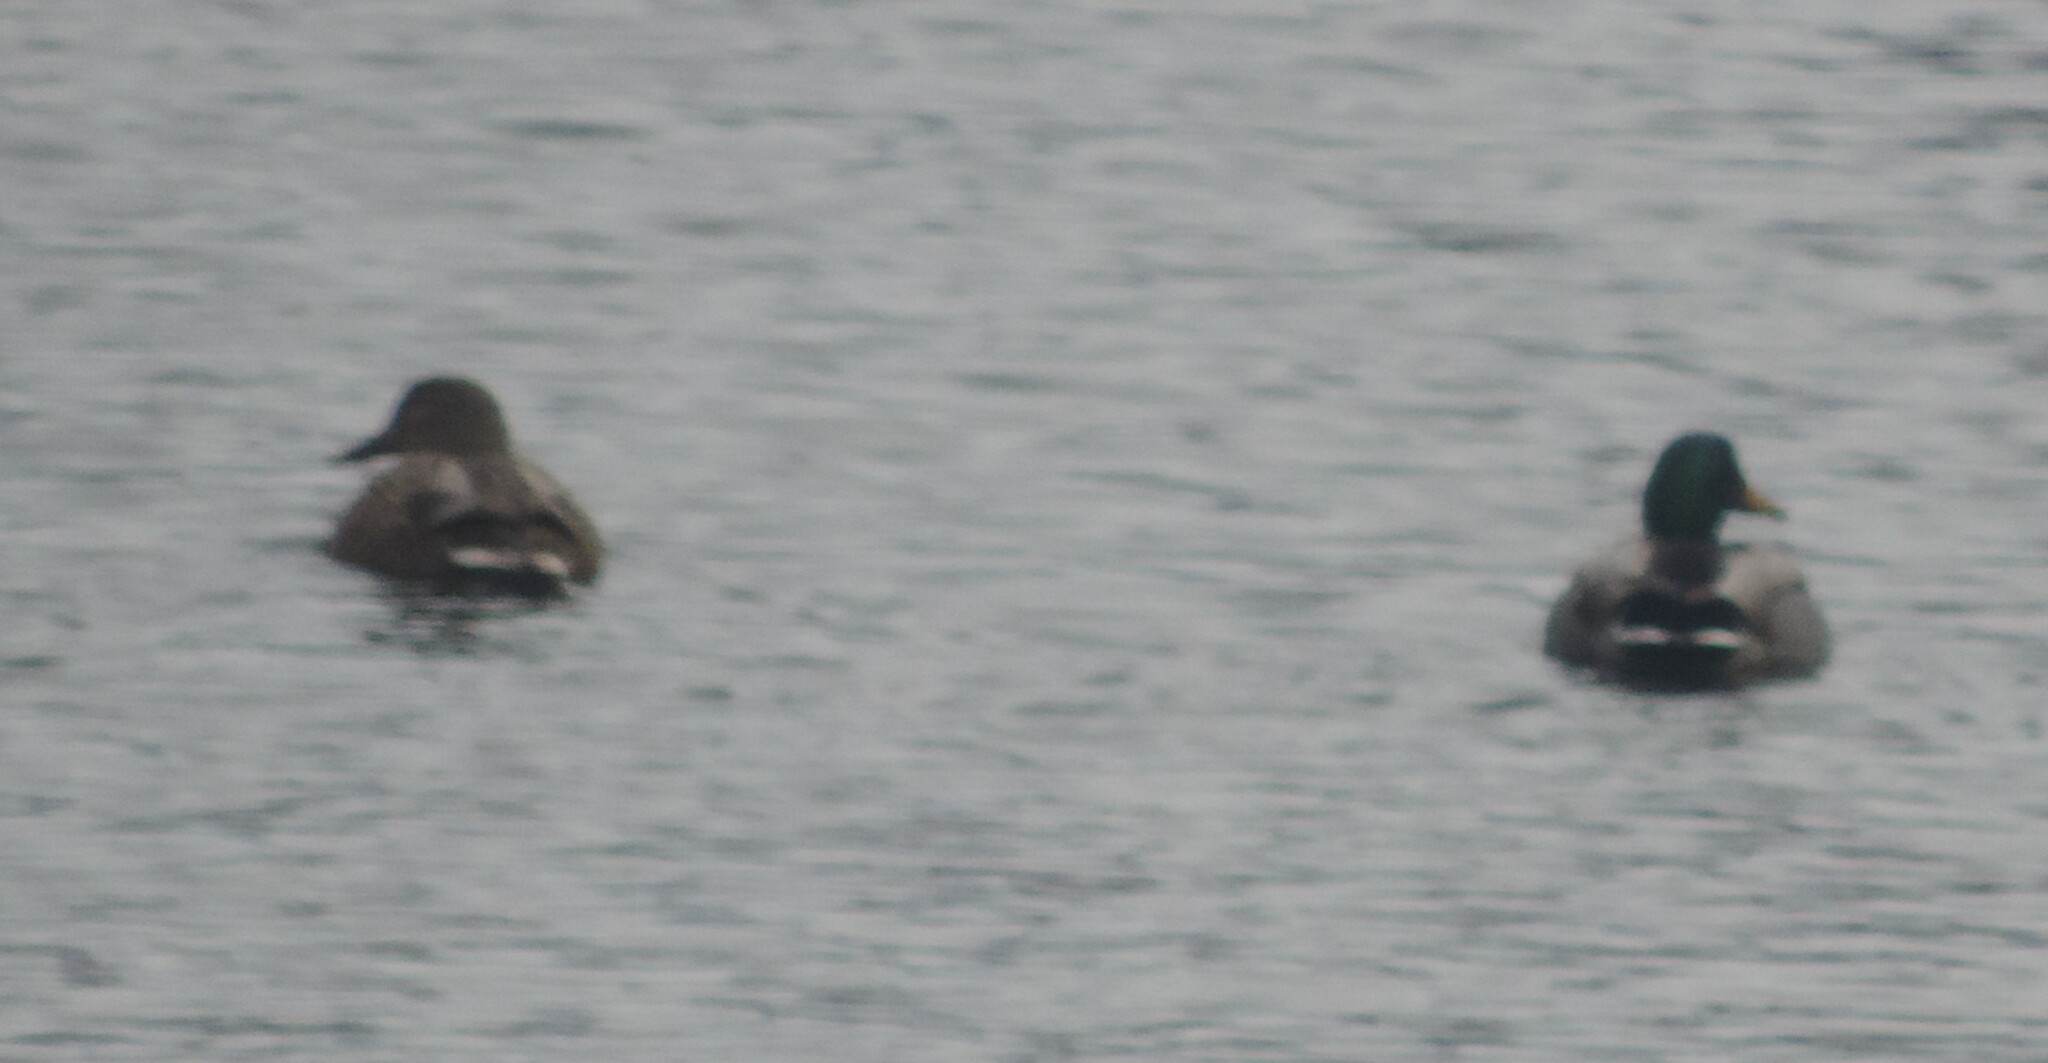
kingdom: Animalia
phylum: Chordata
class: Aves
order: Anseriformes
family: Anatidae
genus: Anas
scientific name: Anas platyrhynchos
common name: Mallard
